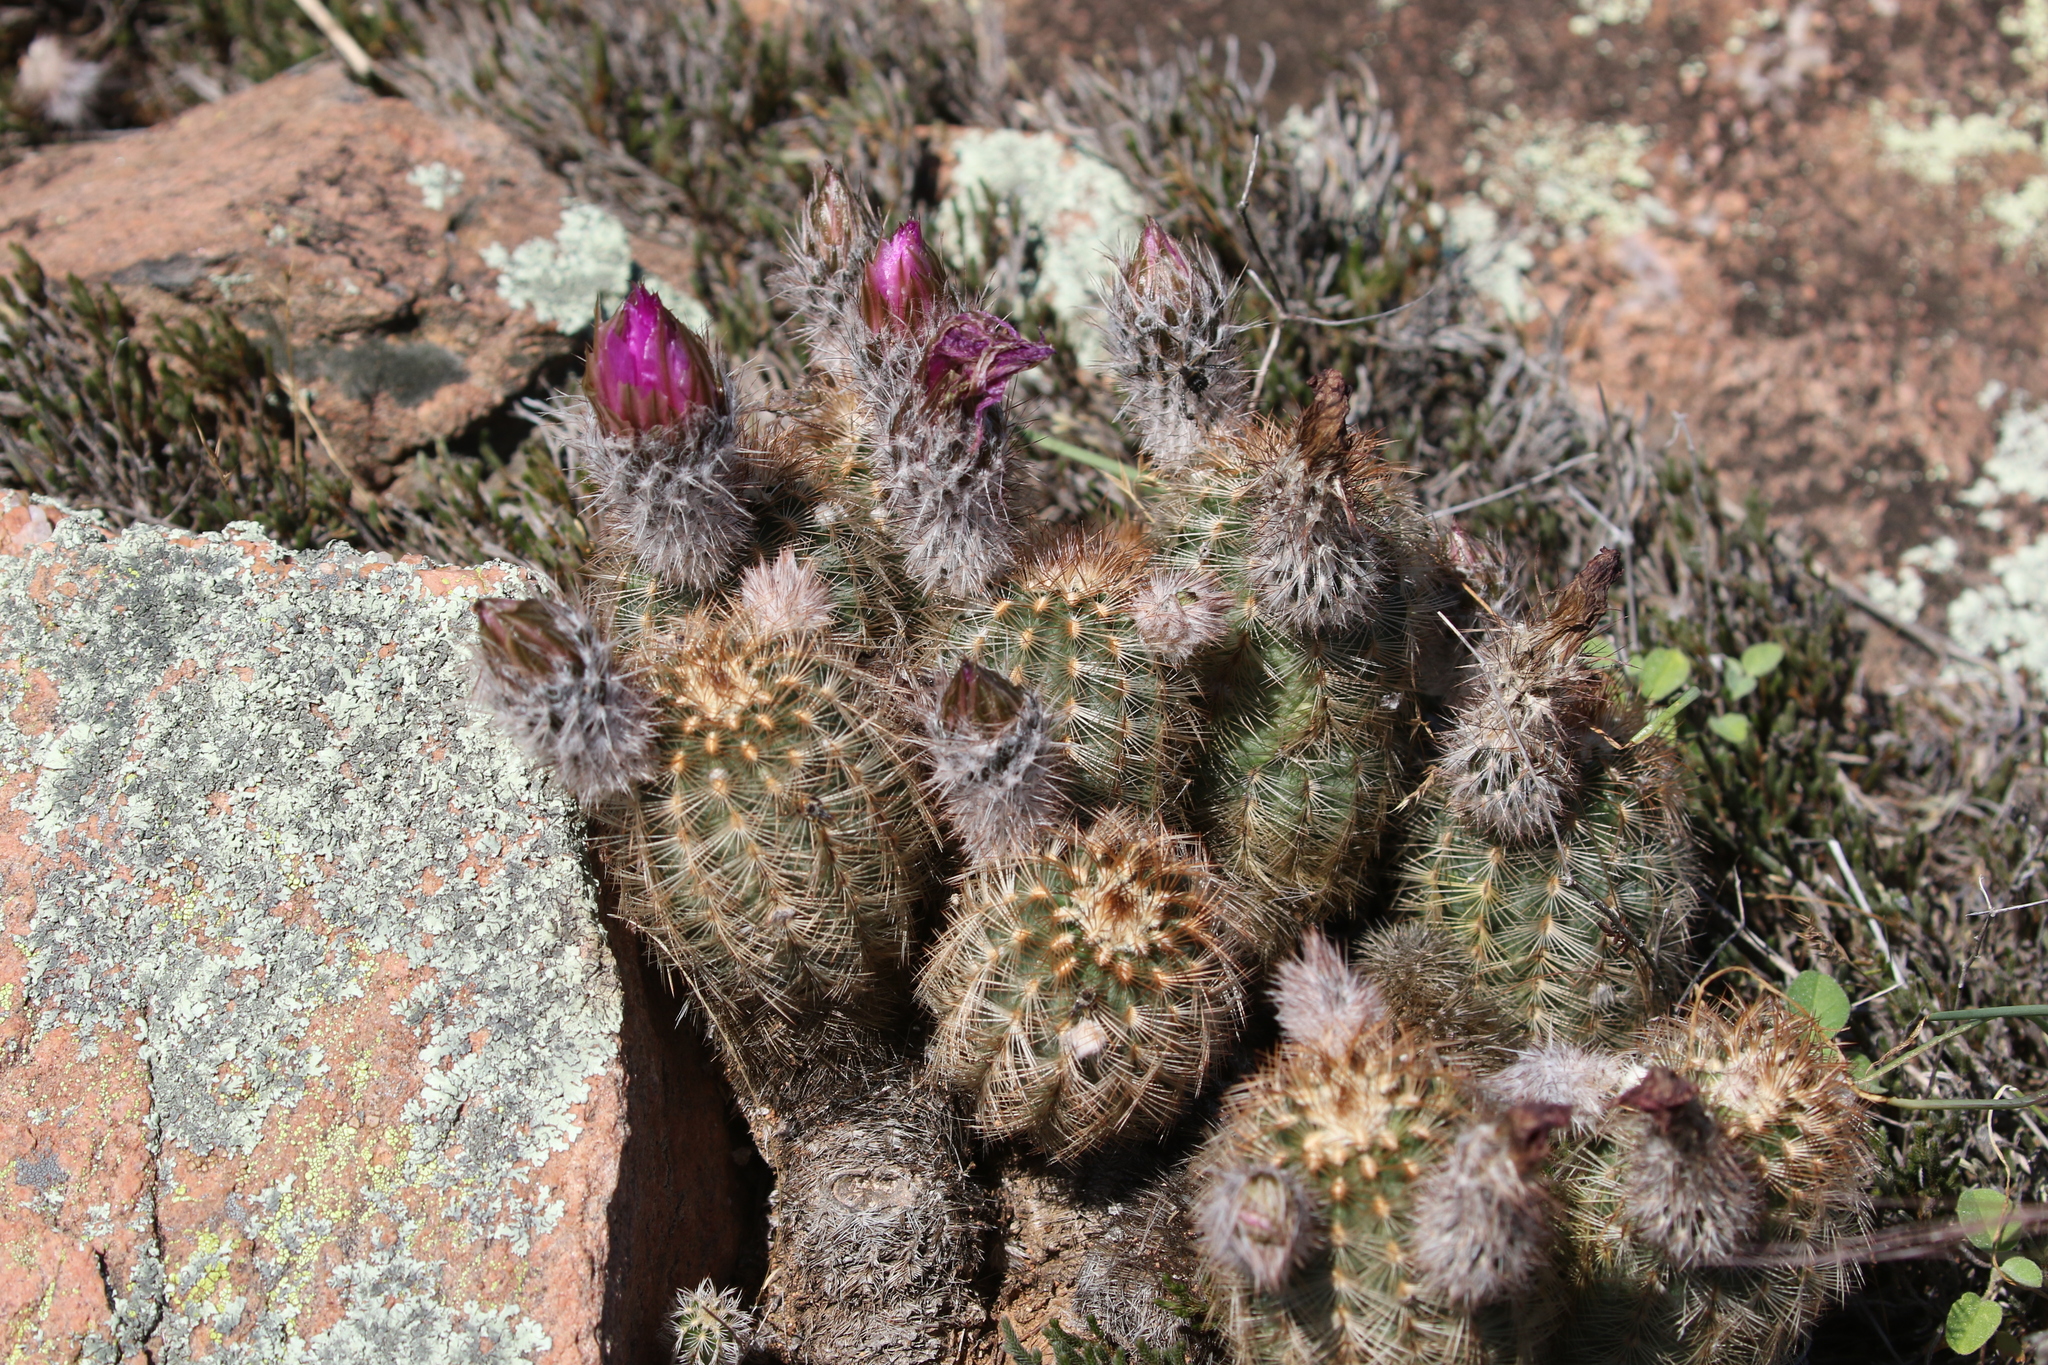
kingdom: Plantae
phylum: Tracheophyta
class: Magnoliopsida
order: Caryophyllales
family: Cactaceae
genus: Echinocereus
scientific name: Echinocereus reichenbachii
